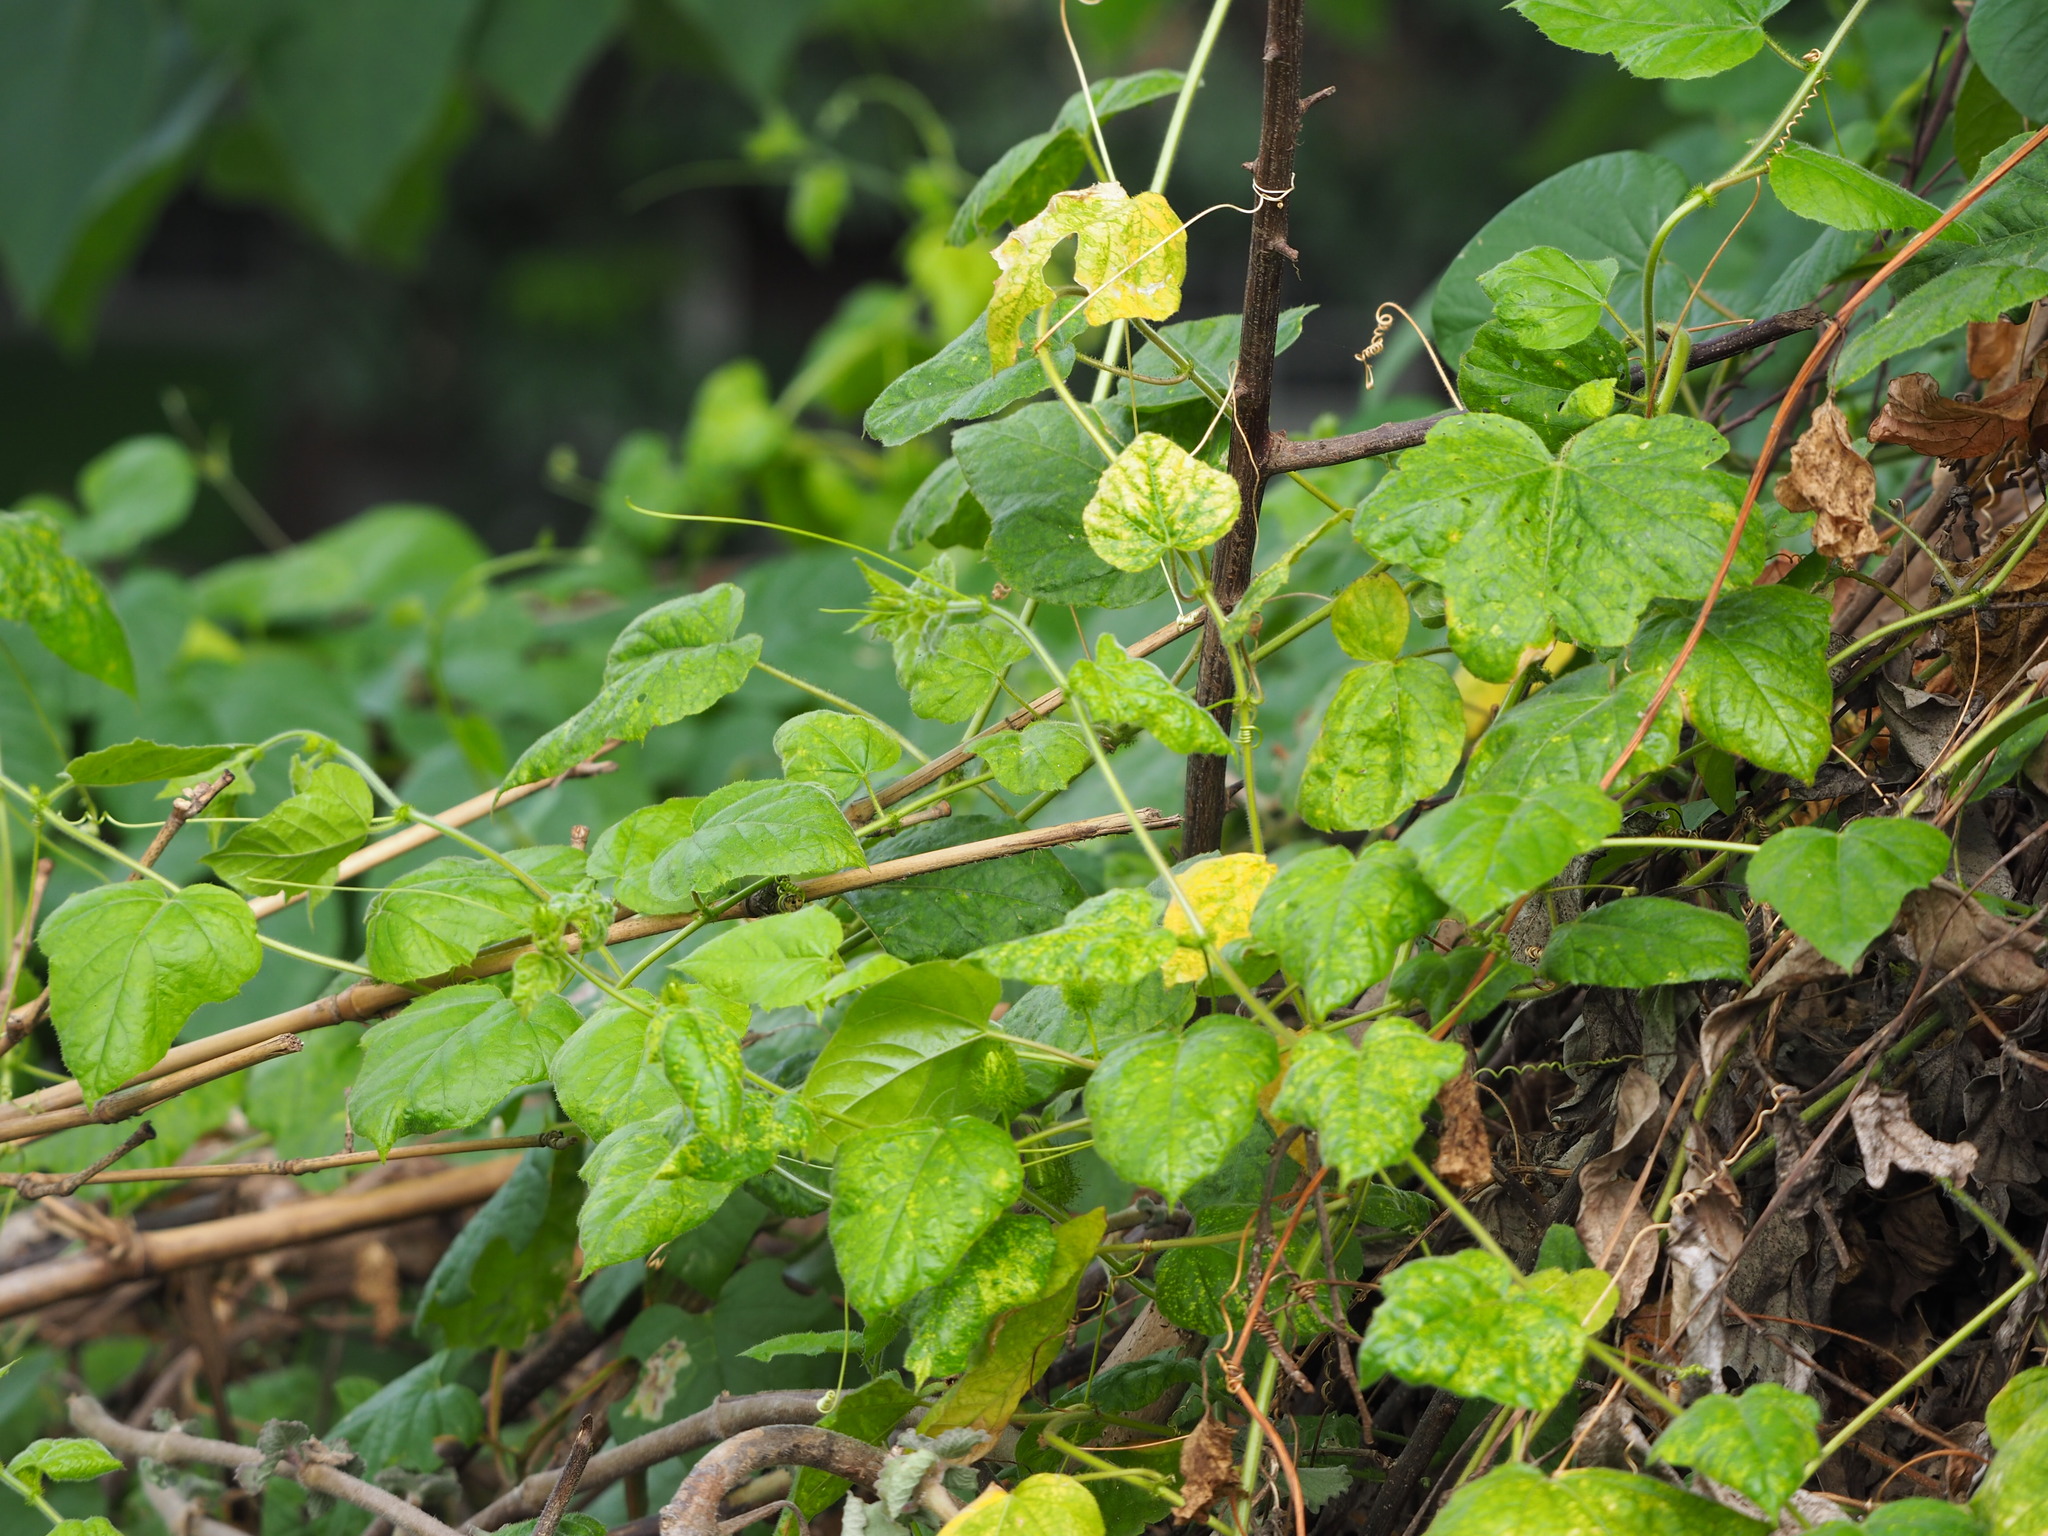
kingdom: Plantae
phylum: Tracheophyta
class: Magnoliopsida
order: Malpighiales
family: Passifloraceae
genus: Passiflora
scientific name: Passiflora vesicaria
